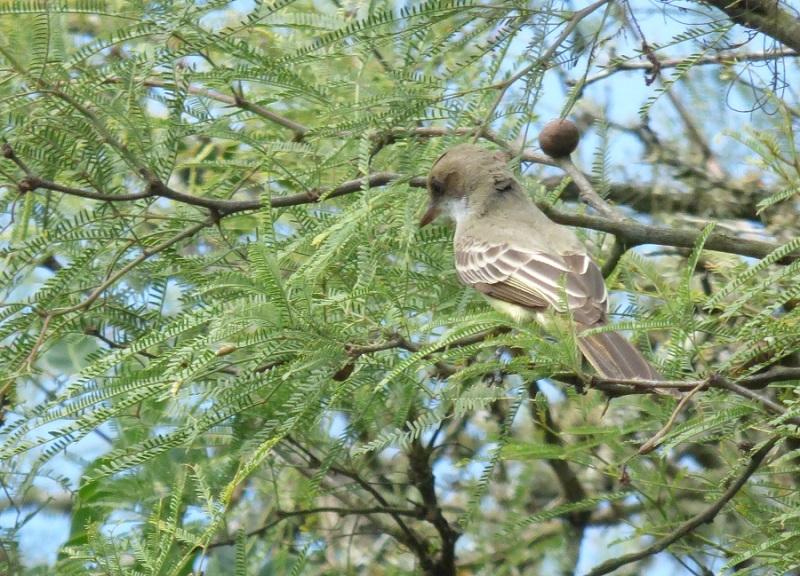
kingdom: Animalia
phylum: Chordata
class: Aves
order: Passeriformes
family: Tyrannidae
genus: Myiarchus
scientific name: Myiarchus swainsoni
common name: Swainson's flycatcher
